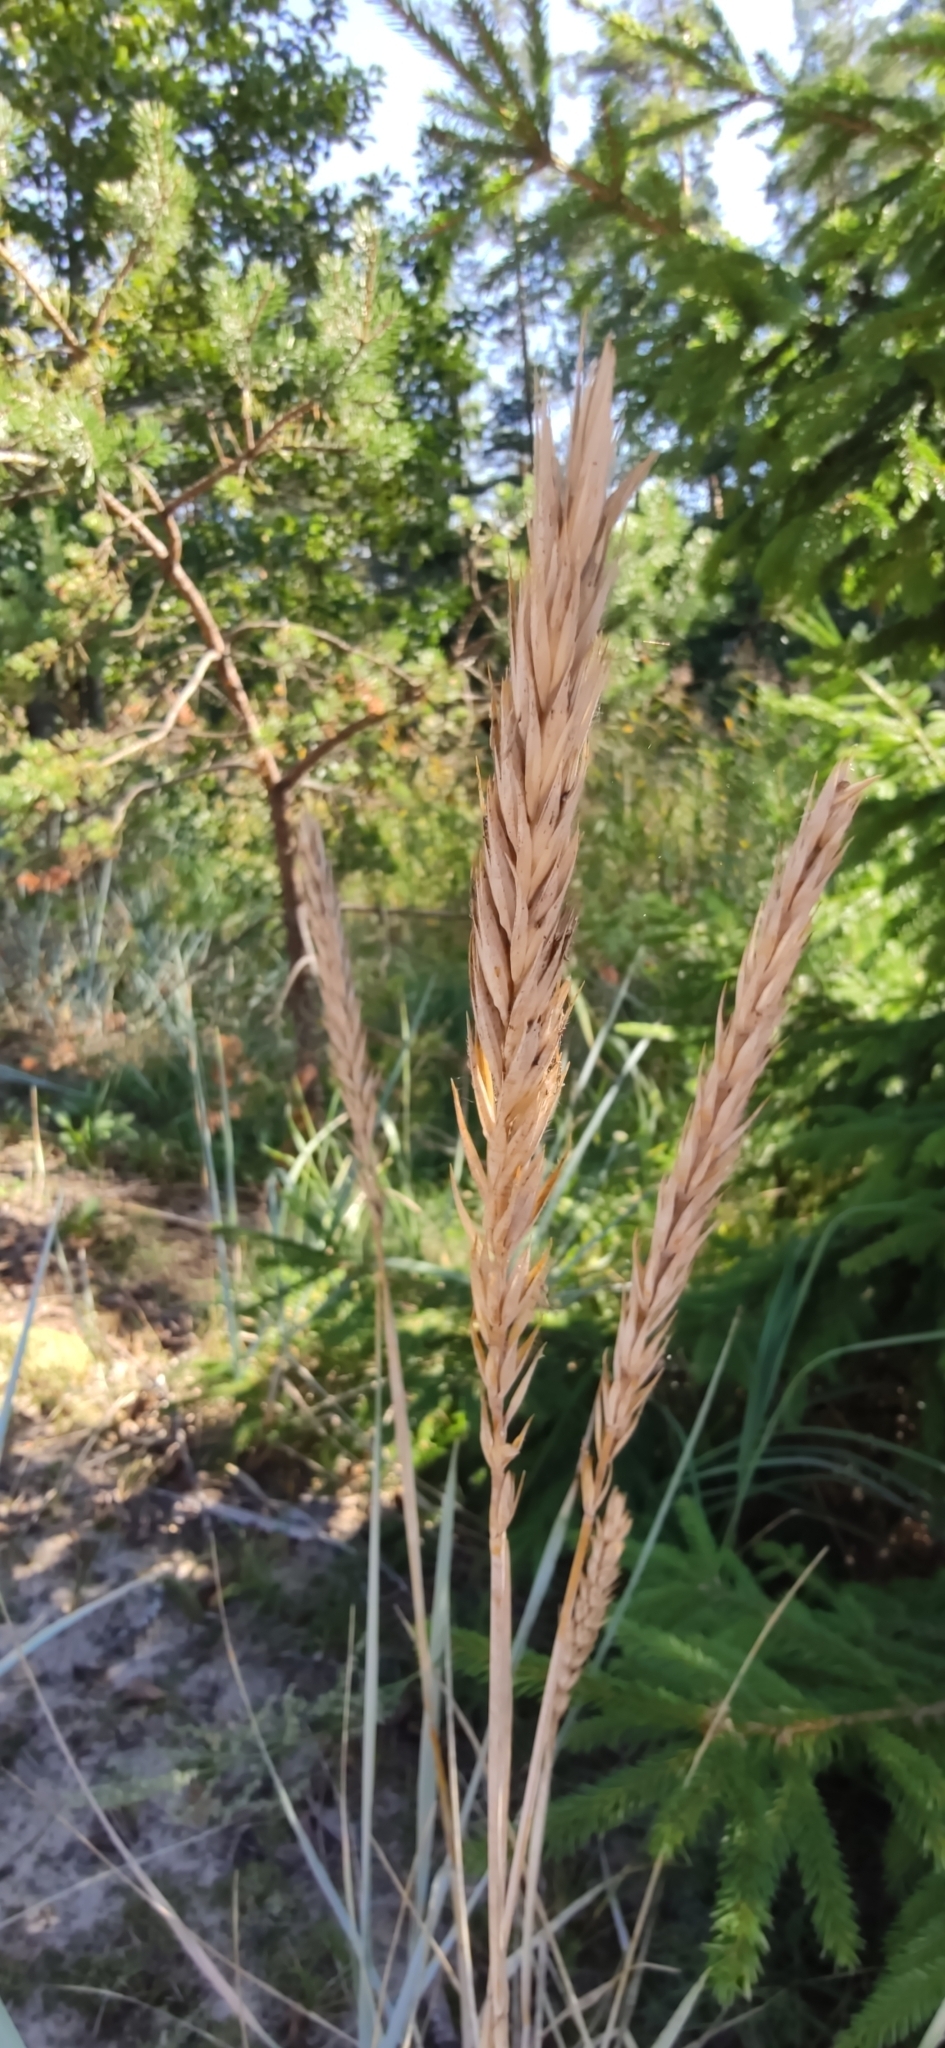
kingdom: Plantae
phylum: Tracheophyta
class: Liliopsida
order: Poales
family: Poaceae
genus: Leymus
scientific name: Leymus arenarius
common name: Lyme-grass
